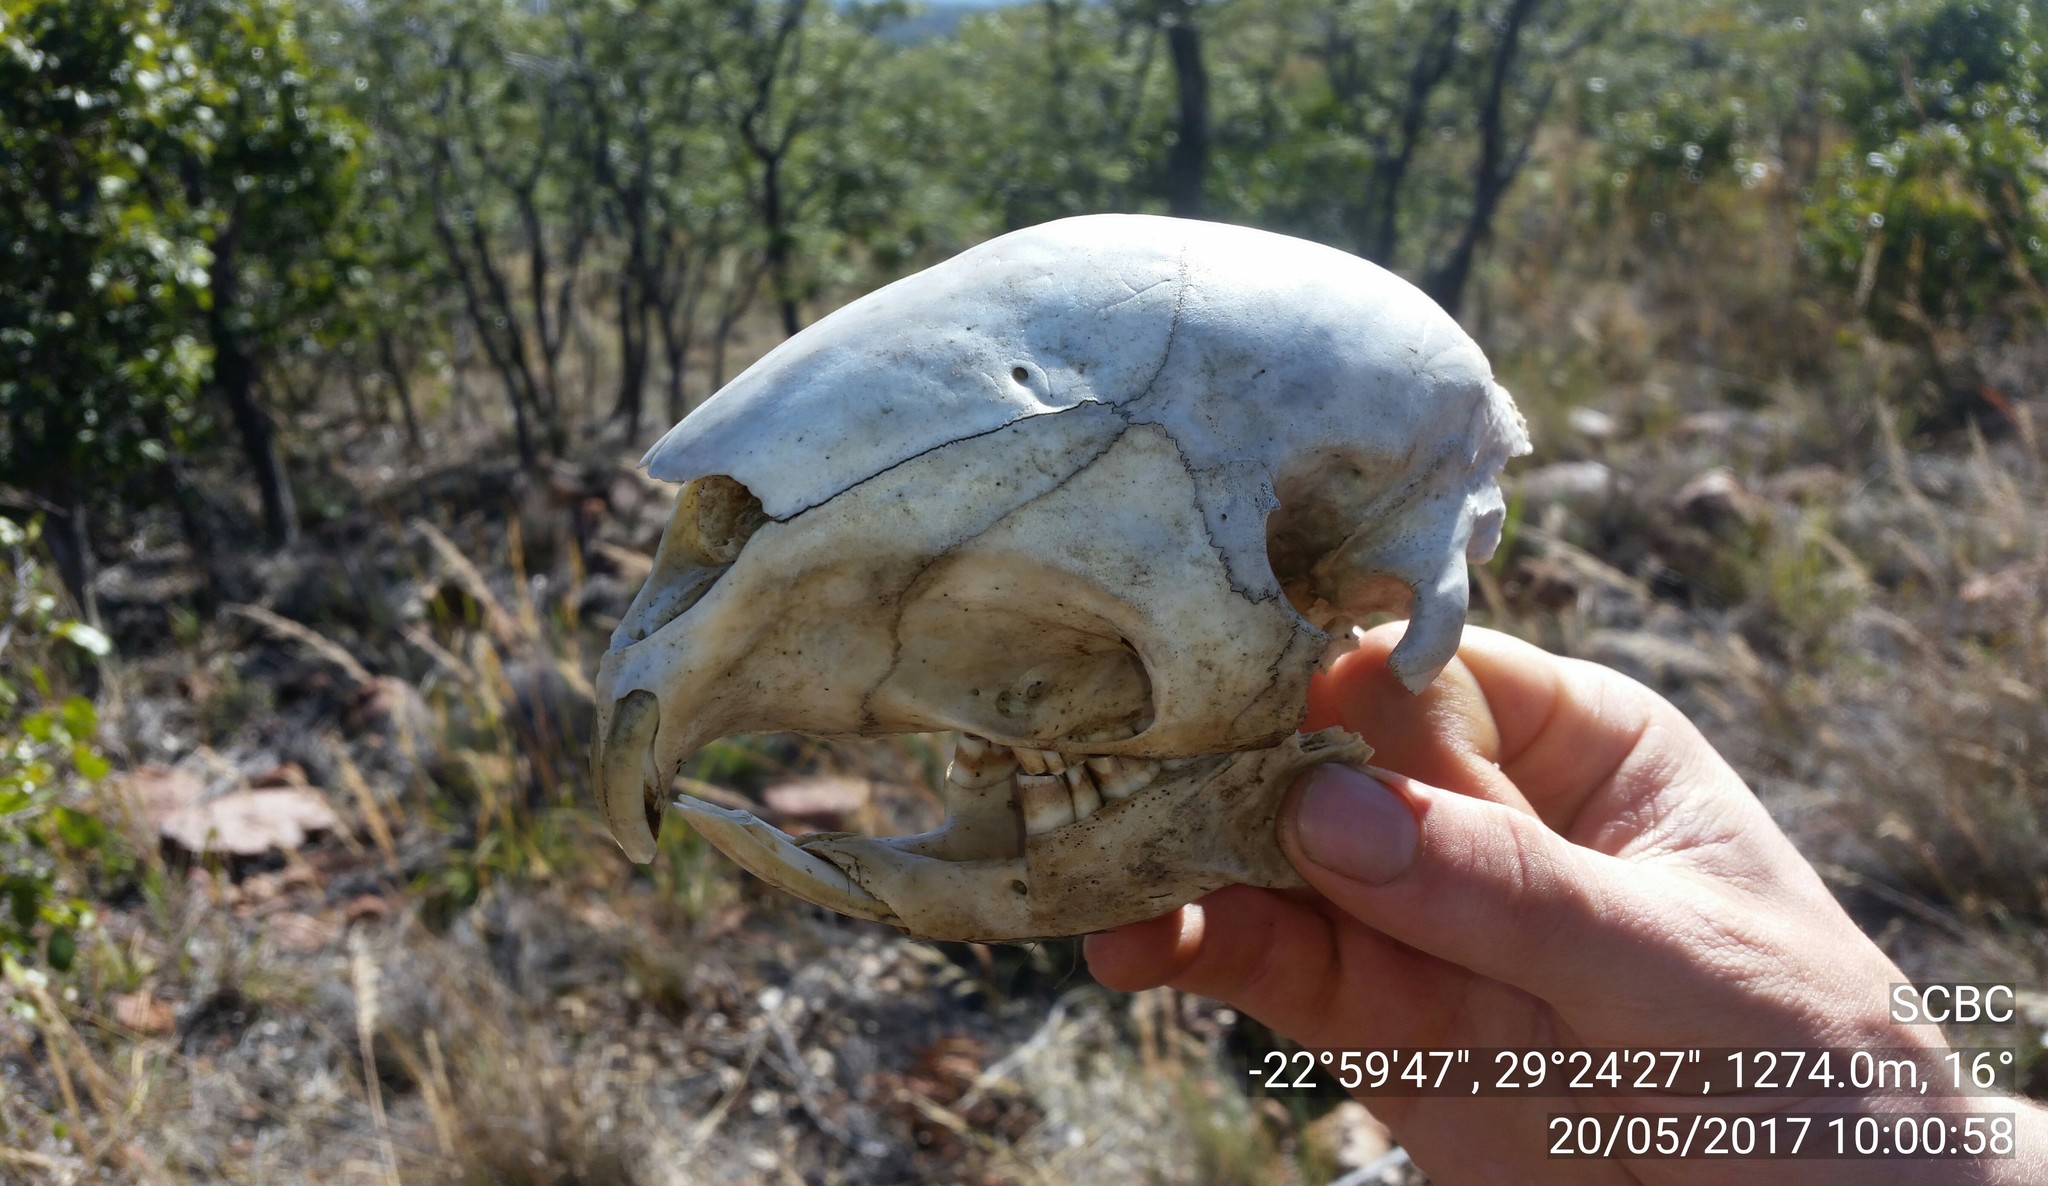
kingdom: Animalia
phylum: Chordata
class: Mammalia
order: Rodentia
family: Hystricidae
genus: Hystrix
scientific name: Hystrix africaeaustralis
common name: Cape porcupine
